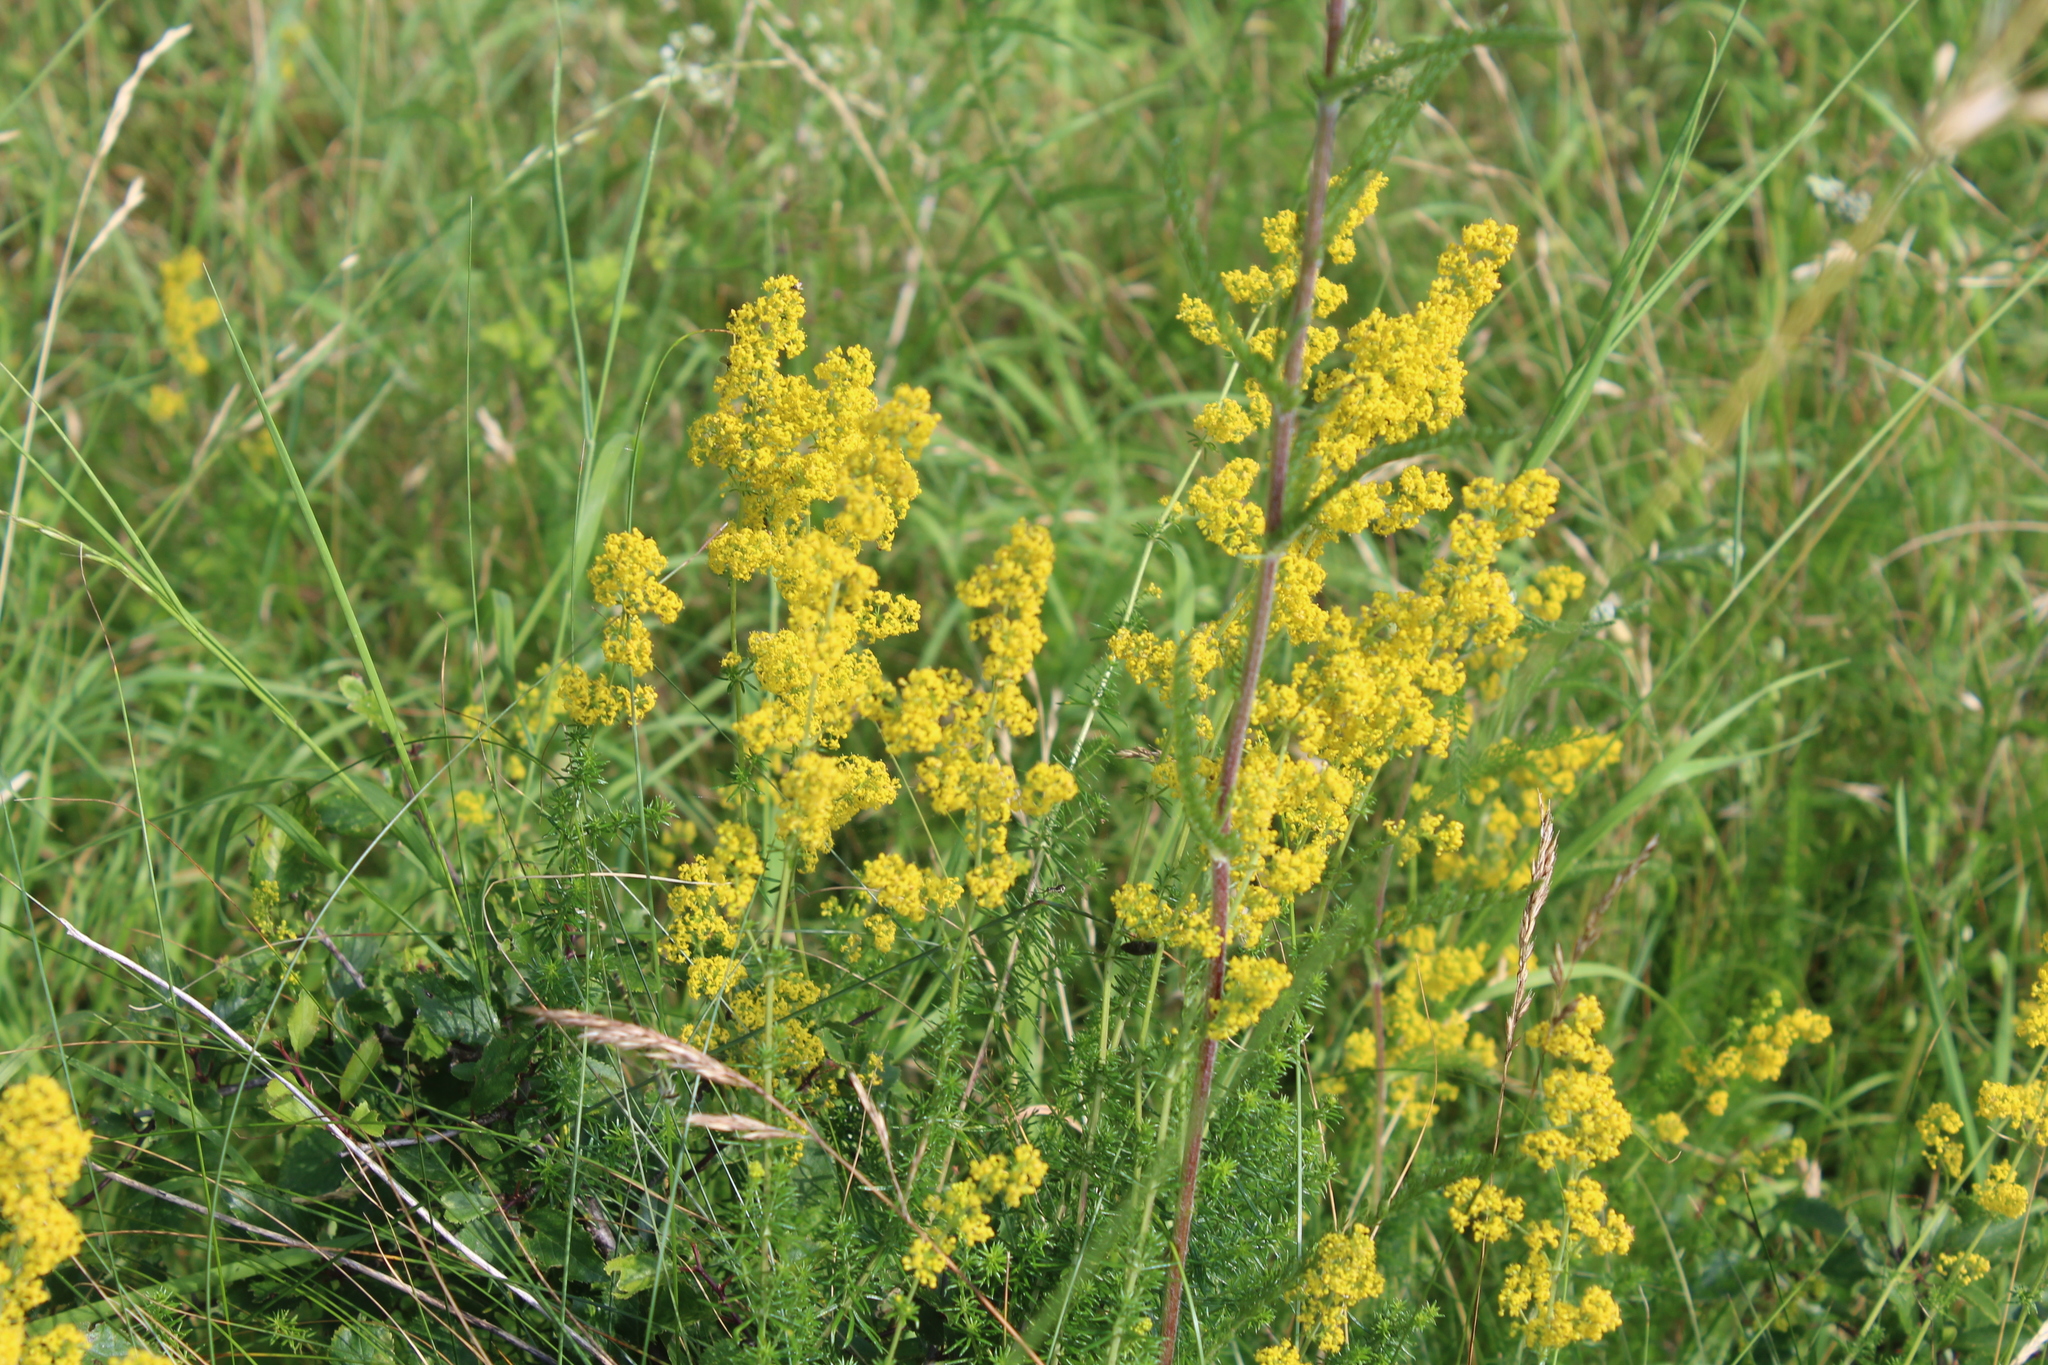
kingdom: Plantae
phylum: Tracheophyta
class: Magnoliopsida
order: Gentianales
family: Rubiaceae
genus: Galium
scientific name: Galium verum
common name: Lady's bedstraw
